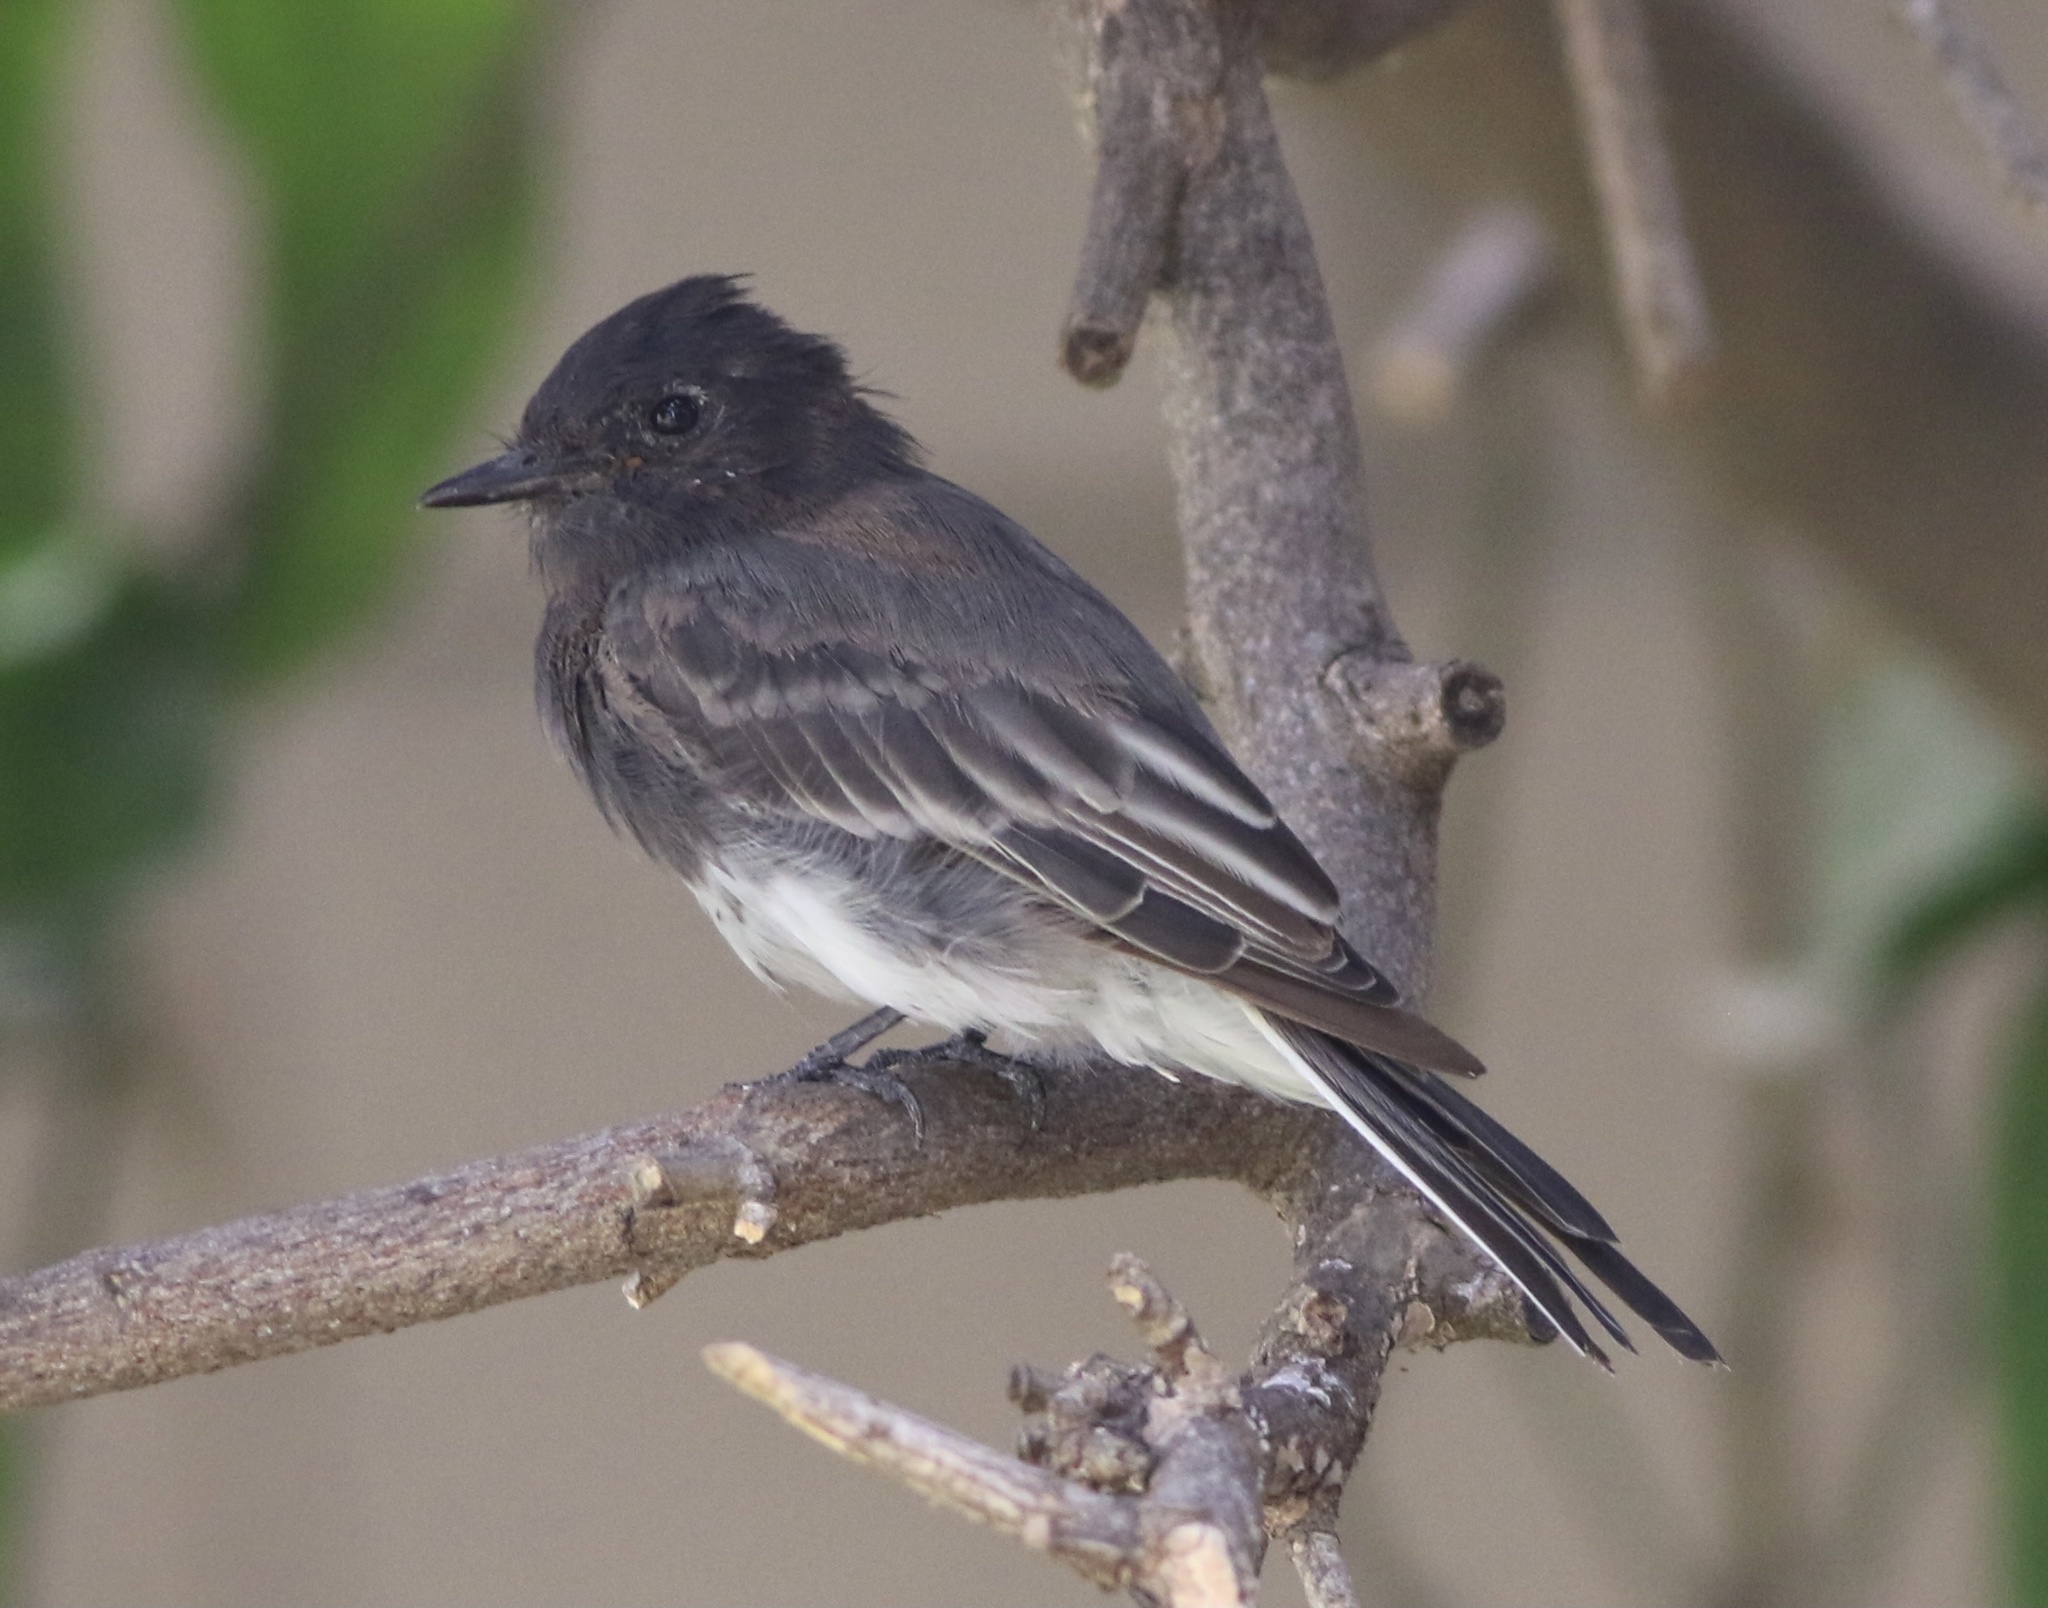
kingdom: Animalia
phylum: Chordata
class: Aves
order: Passeriformes
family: Tyrannidae
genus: Sayornis
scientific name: Sayornis nigricans
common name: Black phoebe
